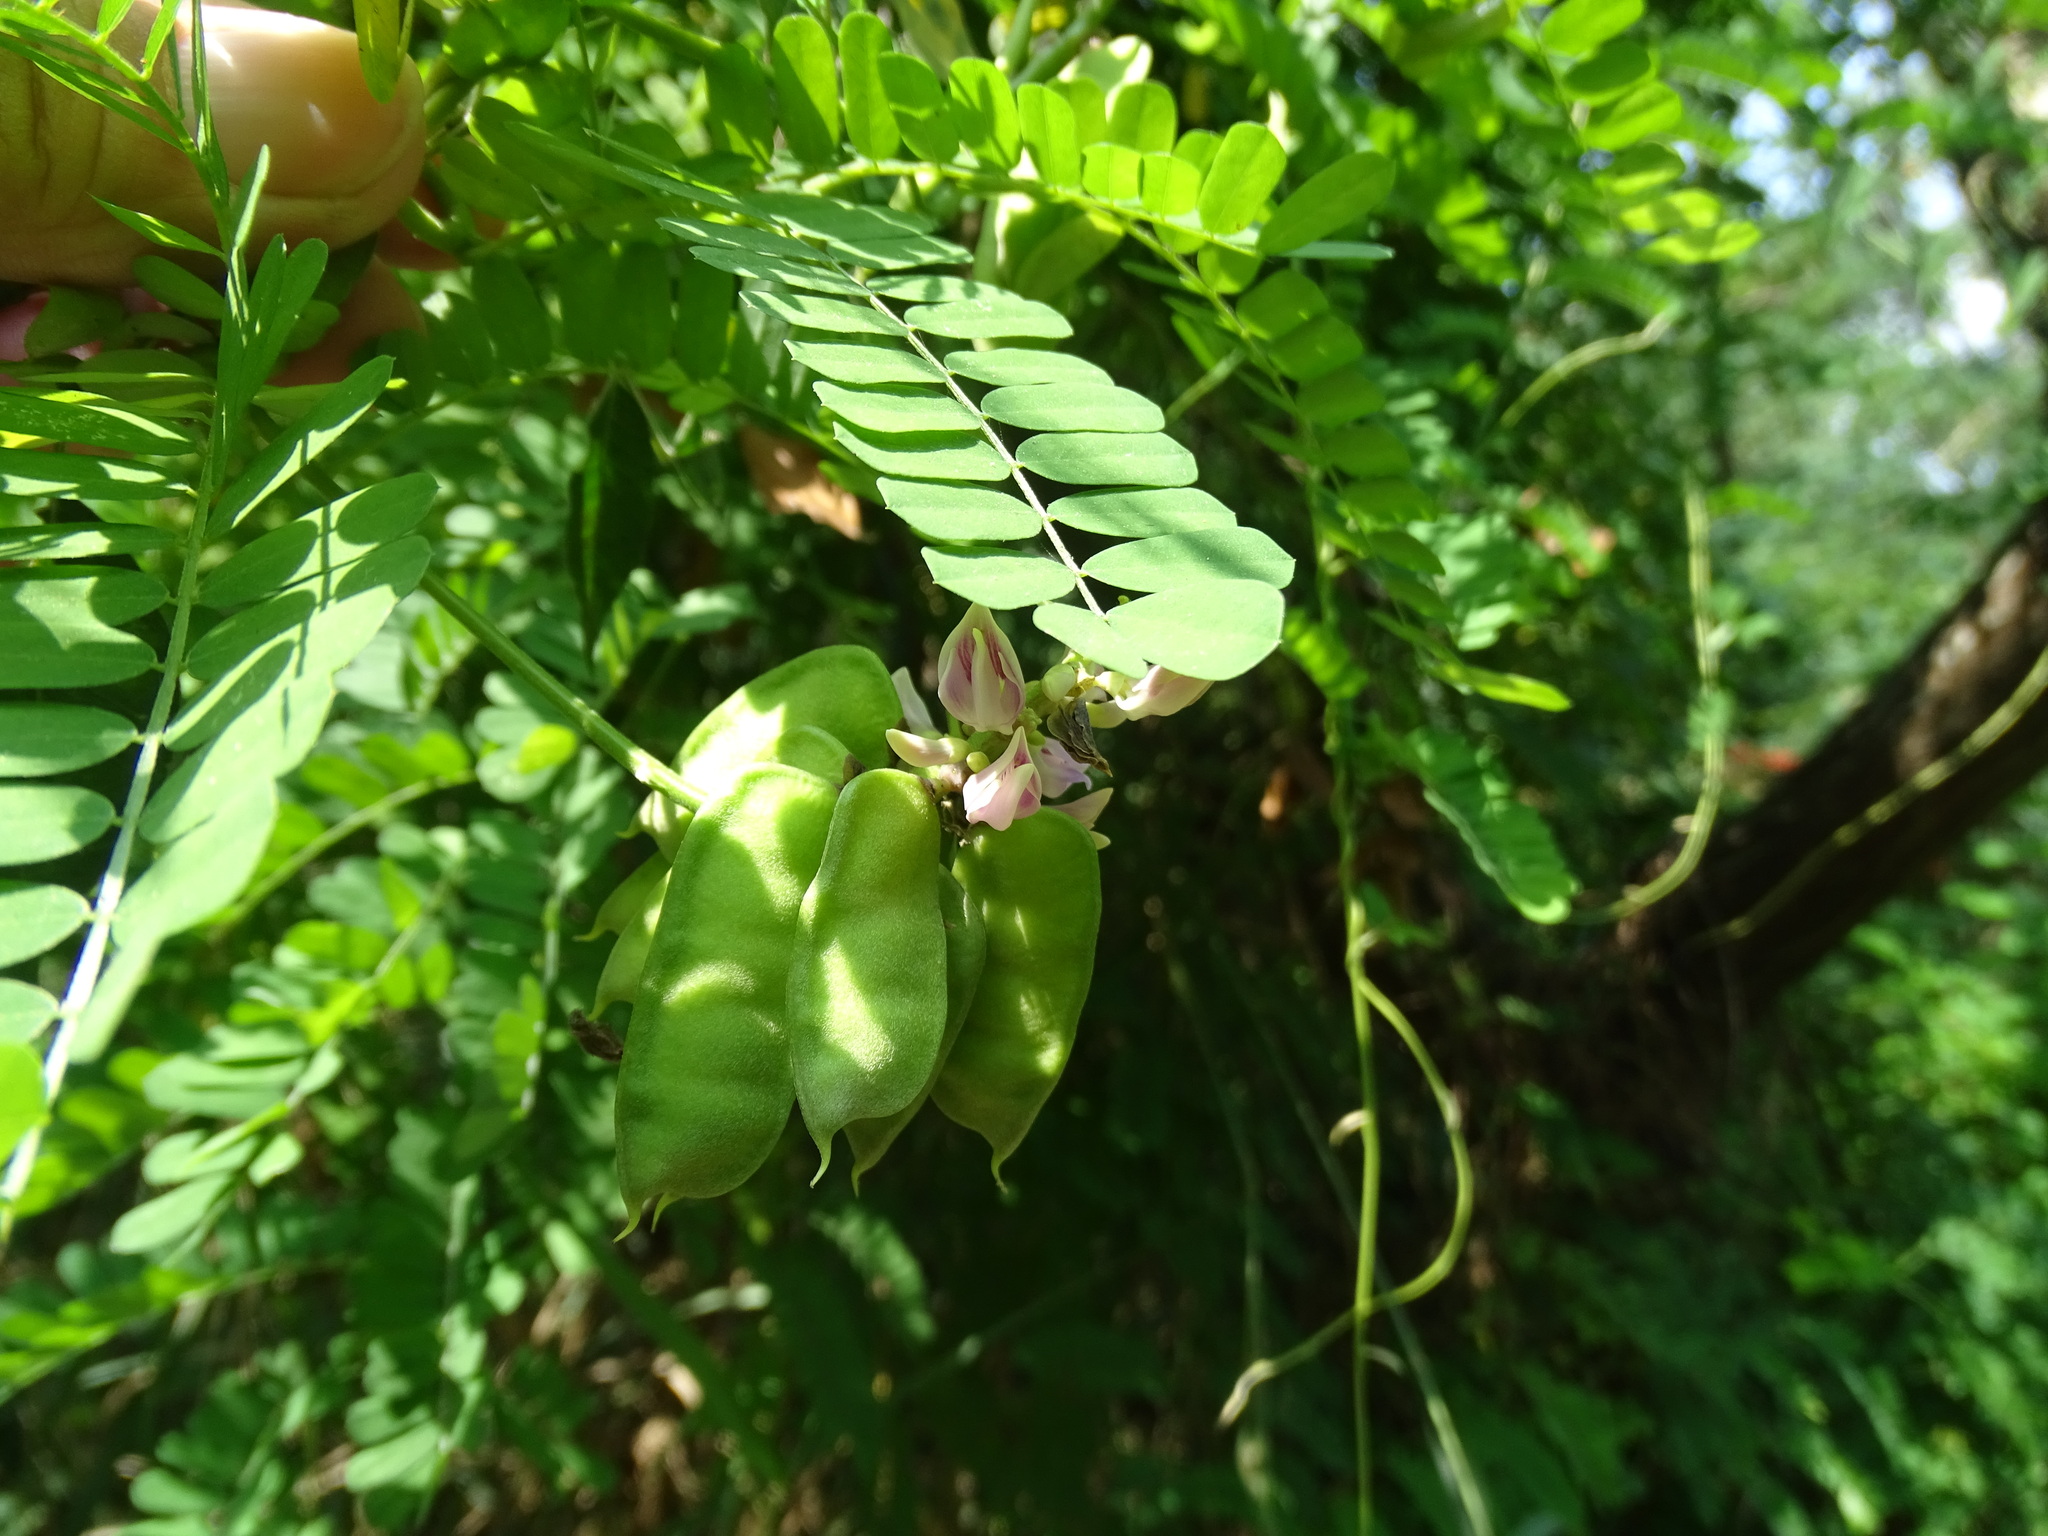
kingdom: Plantae
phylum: Tracheophyta
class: Magnoliopsida
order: Fabales
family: Fabaceae
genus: Abrus
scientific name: Abrus precatorius
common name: Rosarypea
